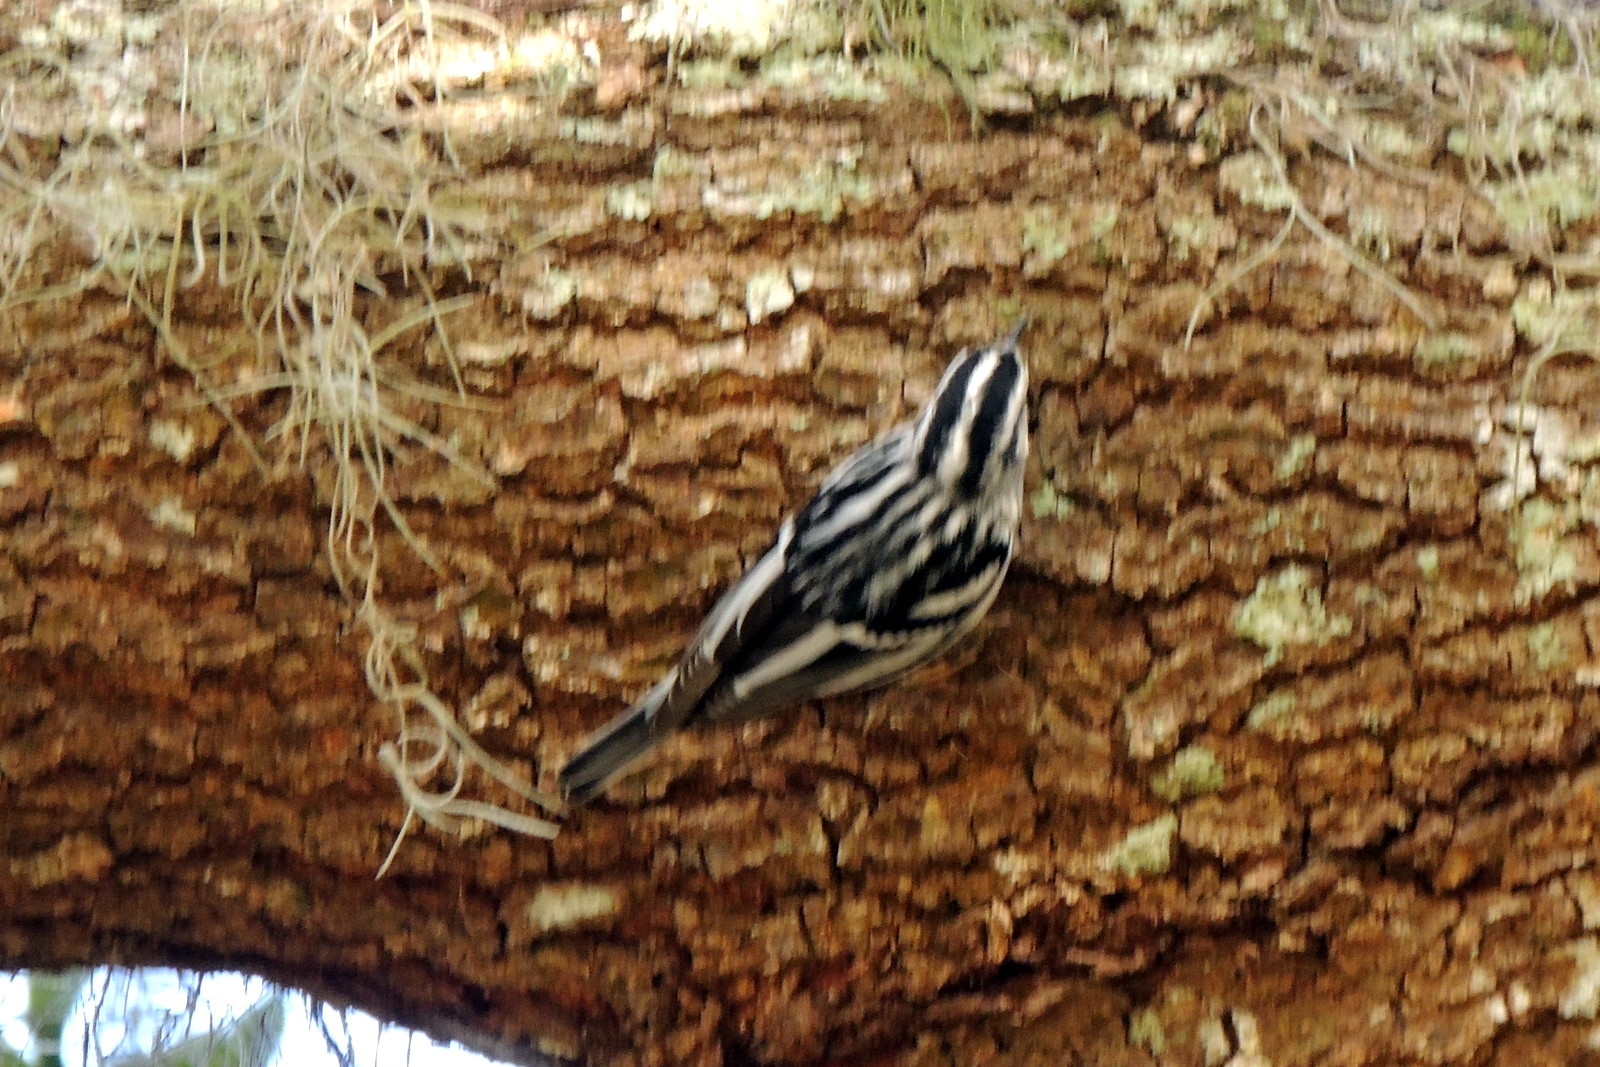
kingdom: Animalia
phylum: Chordata
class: Aves
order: Passeriformes
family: Parulidae
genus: Mniotilta
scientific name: Mniotilta varia
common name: Black-and-white warbler
